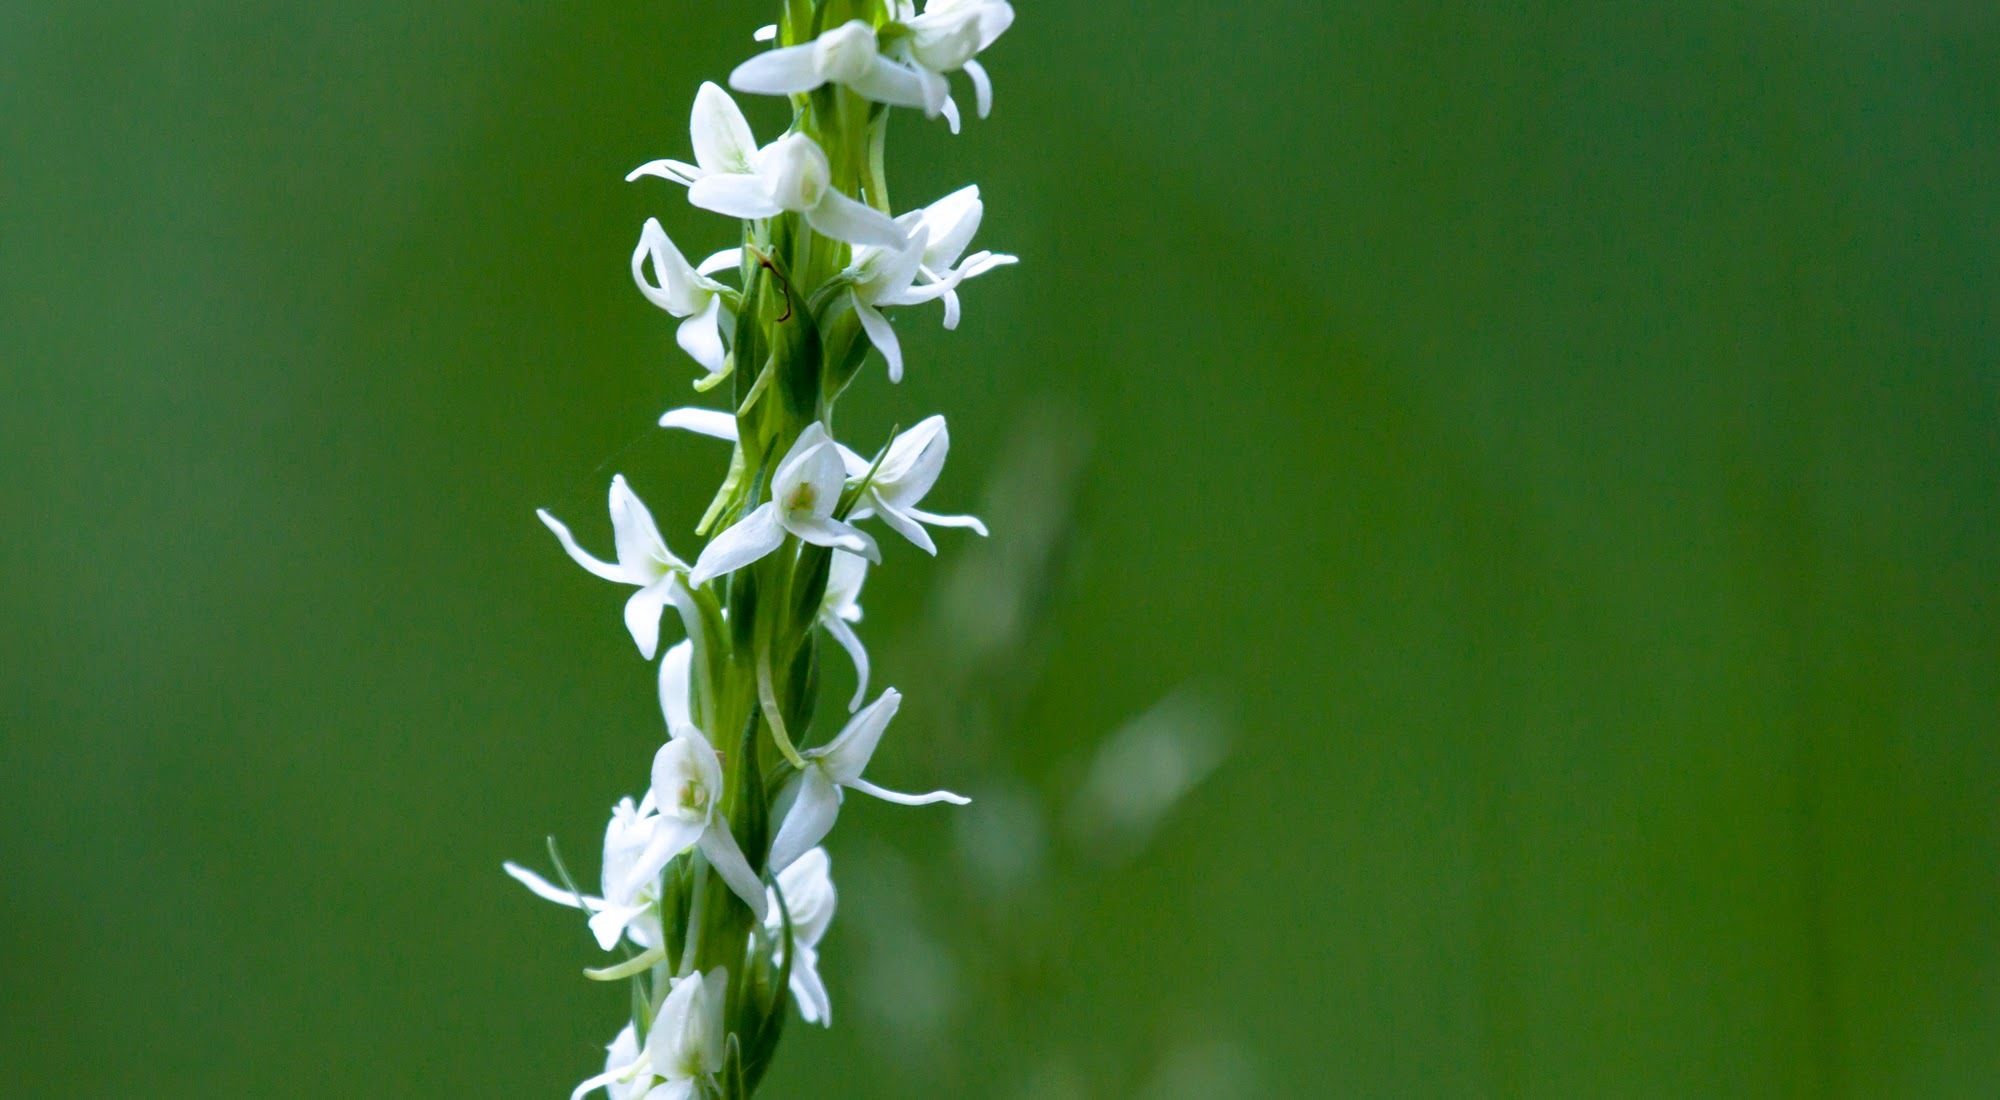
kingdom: Plantae
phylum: Tracheophyta
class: Liliopsida
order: Asparagales
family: Orchidaceae
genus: Platanthera
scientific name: Platanthera dilatata
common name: Bog candles
